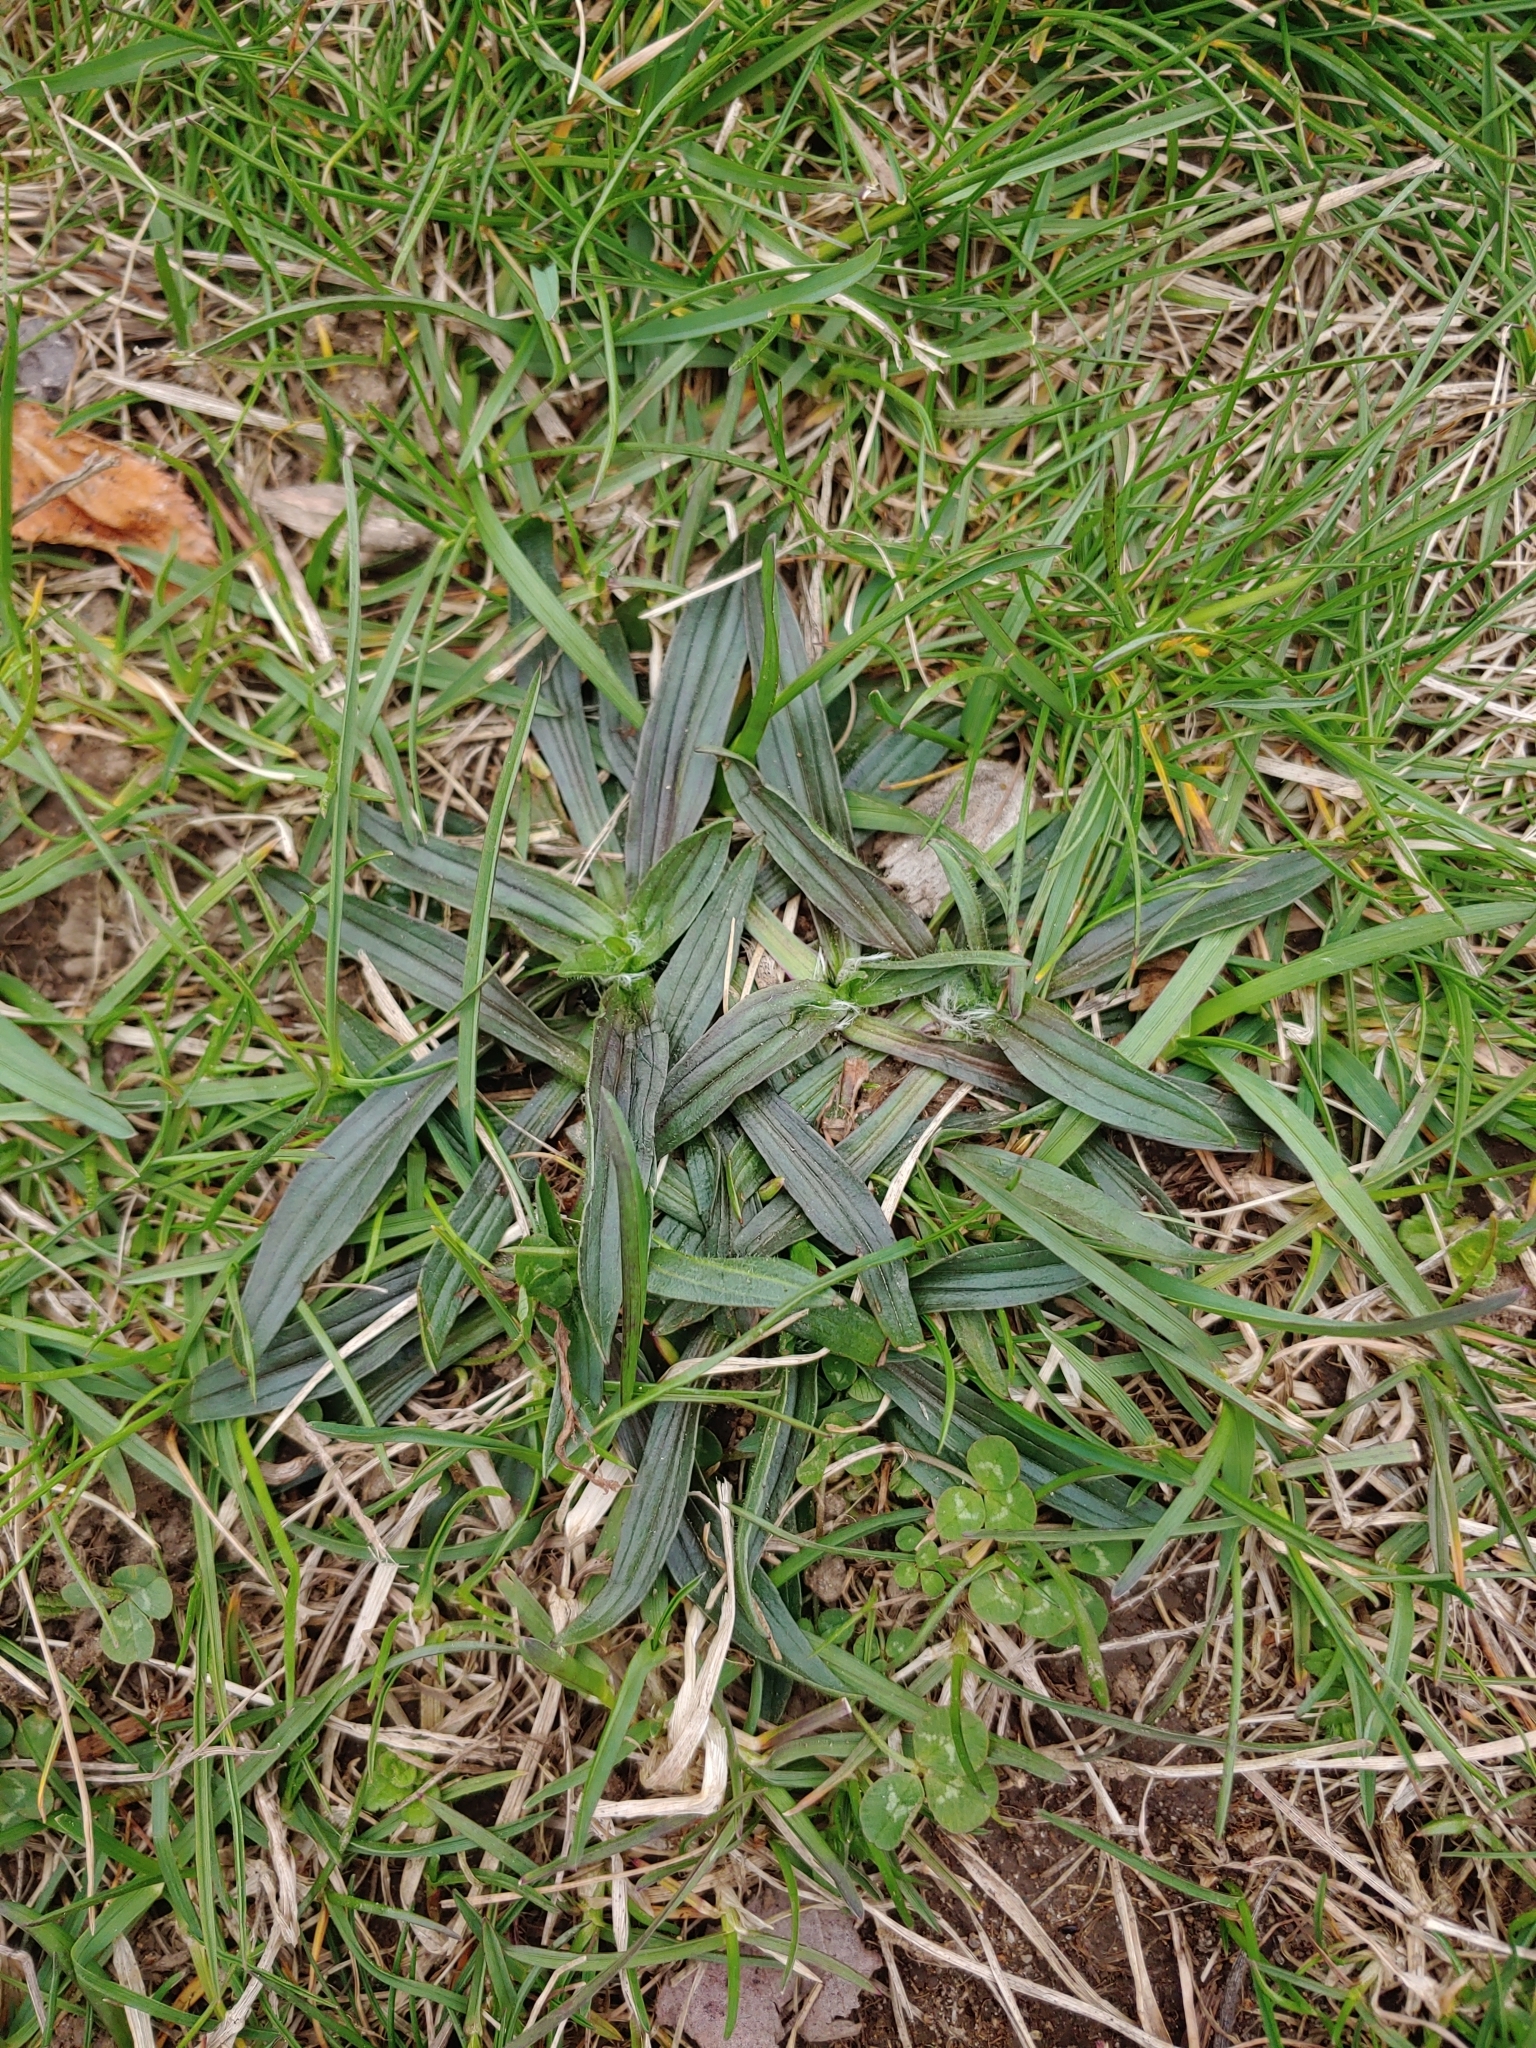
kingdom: Plantae
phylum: Tracheophyta
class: Magnoliopsida
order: Lamiales
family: Plantaginaceae
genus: Plantago
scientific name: Plantago lanceolata
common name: Ribwort plantain
